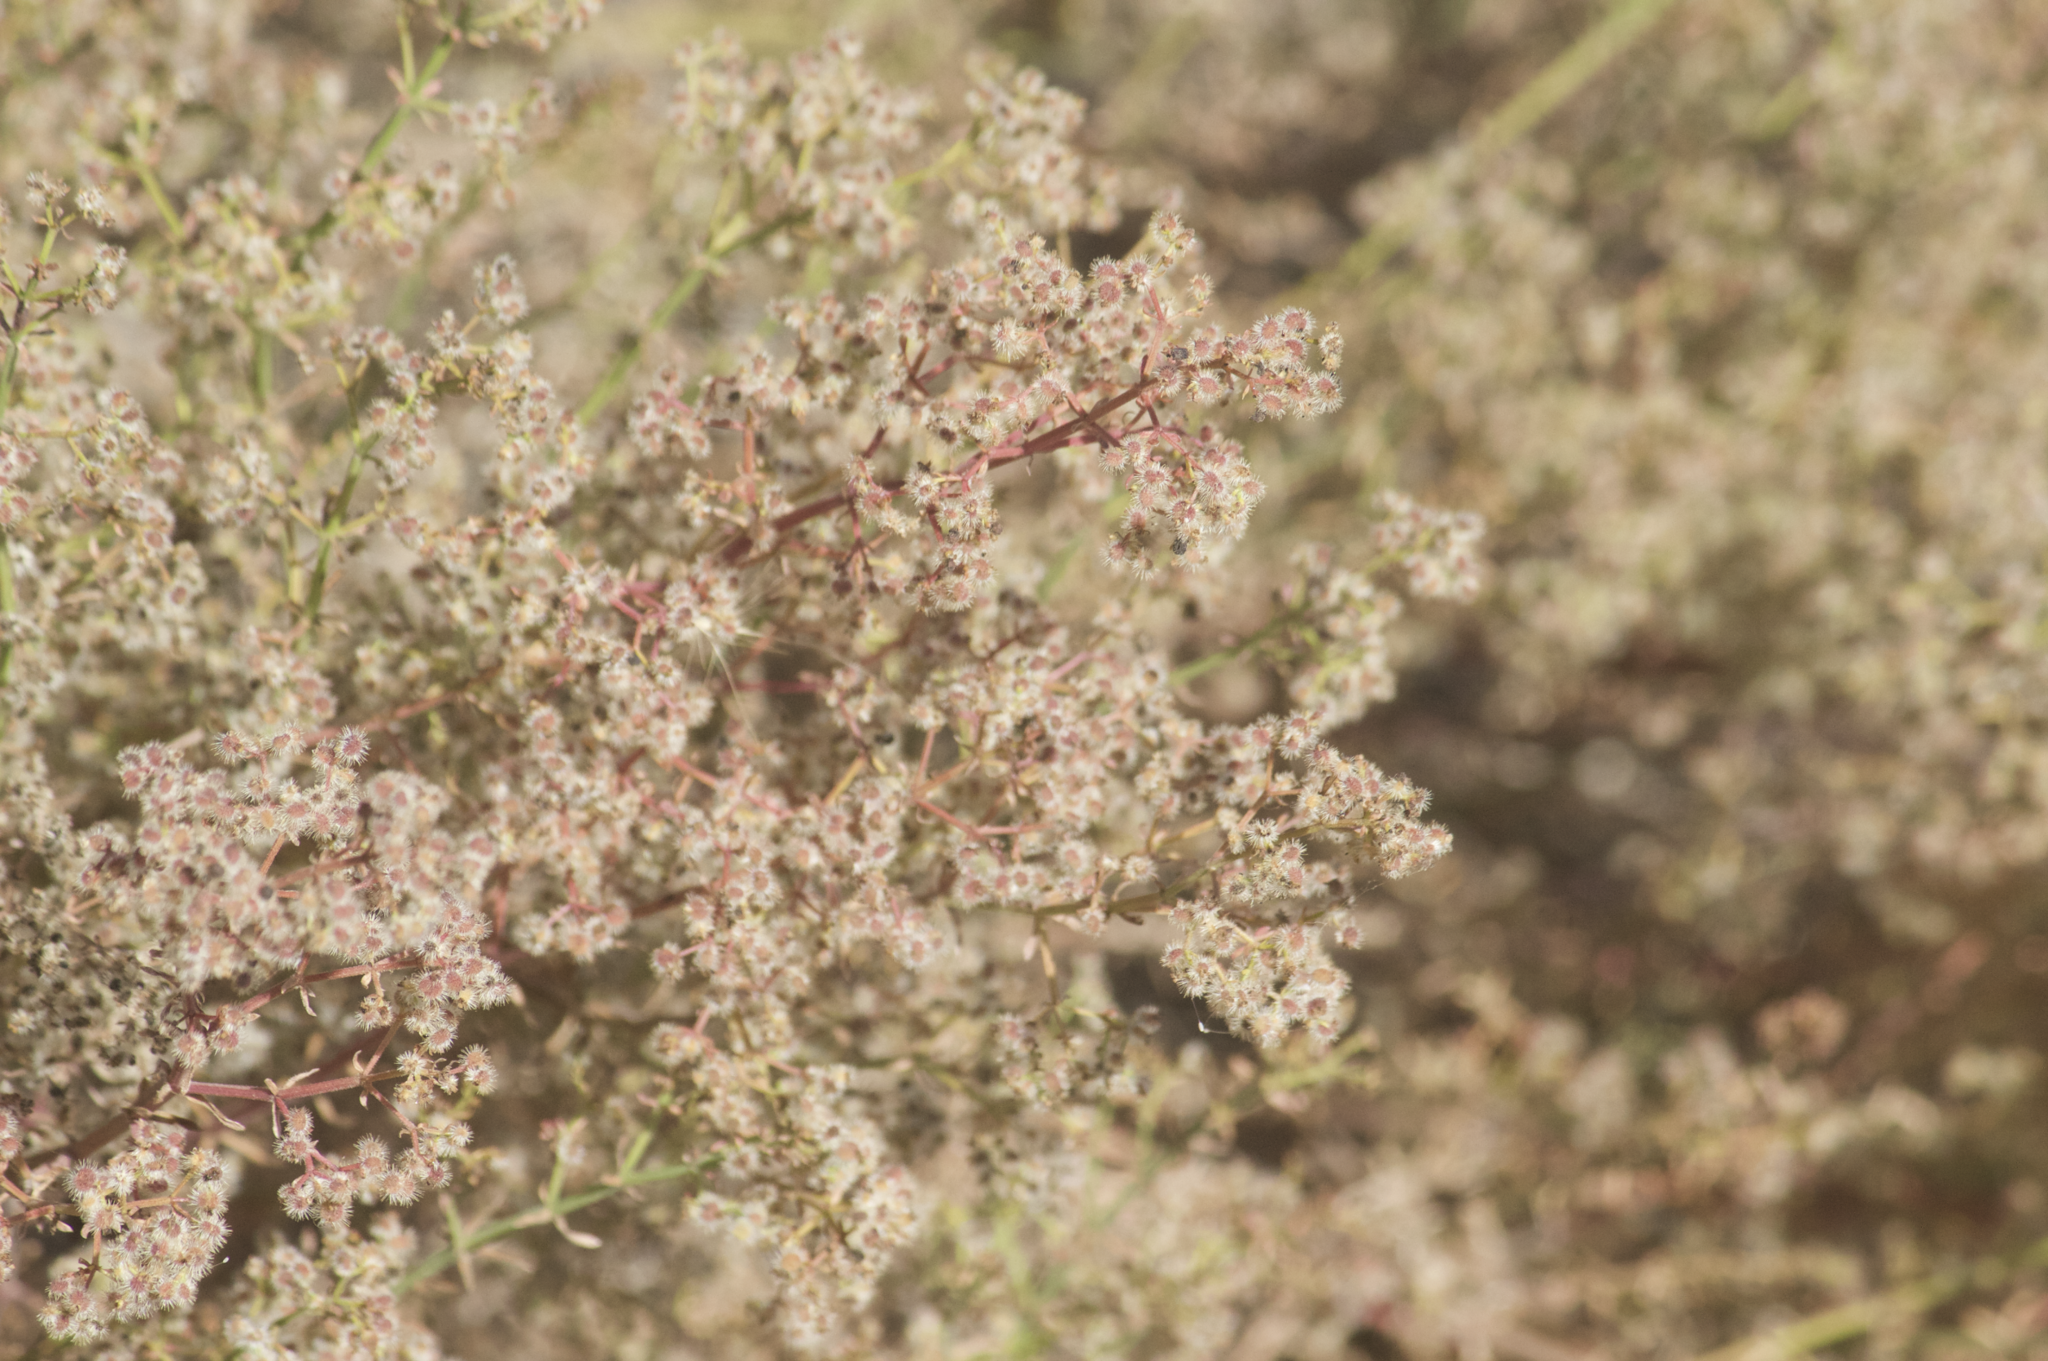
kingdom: Plantae
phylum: Tracheophyta
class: Magnoliopsida
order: Gentianales
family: Rubiaceae
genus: Galium
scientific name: Galium angustifolium
